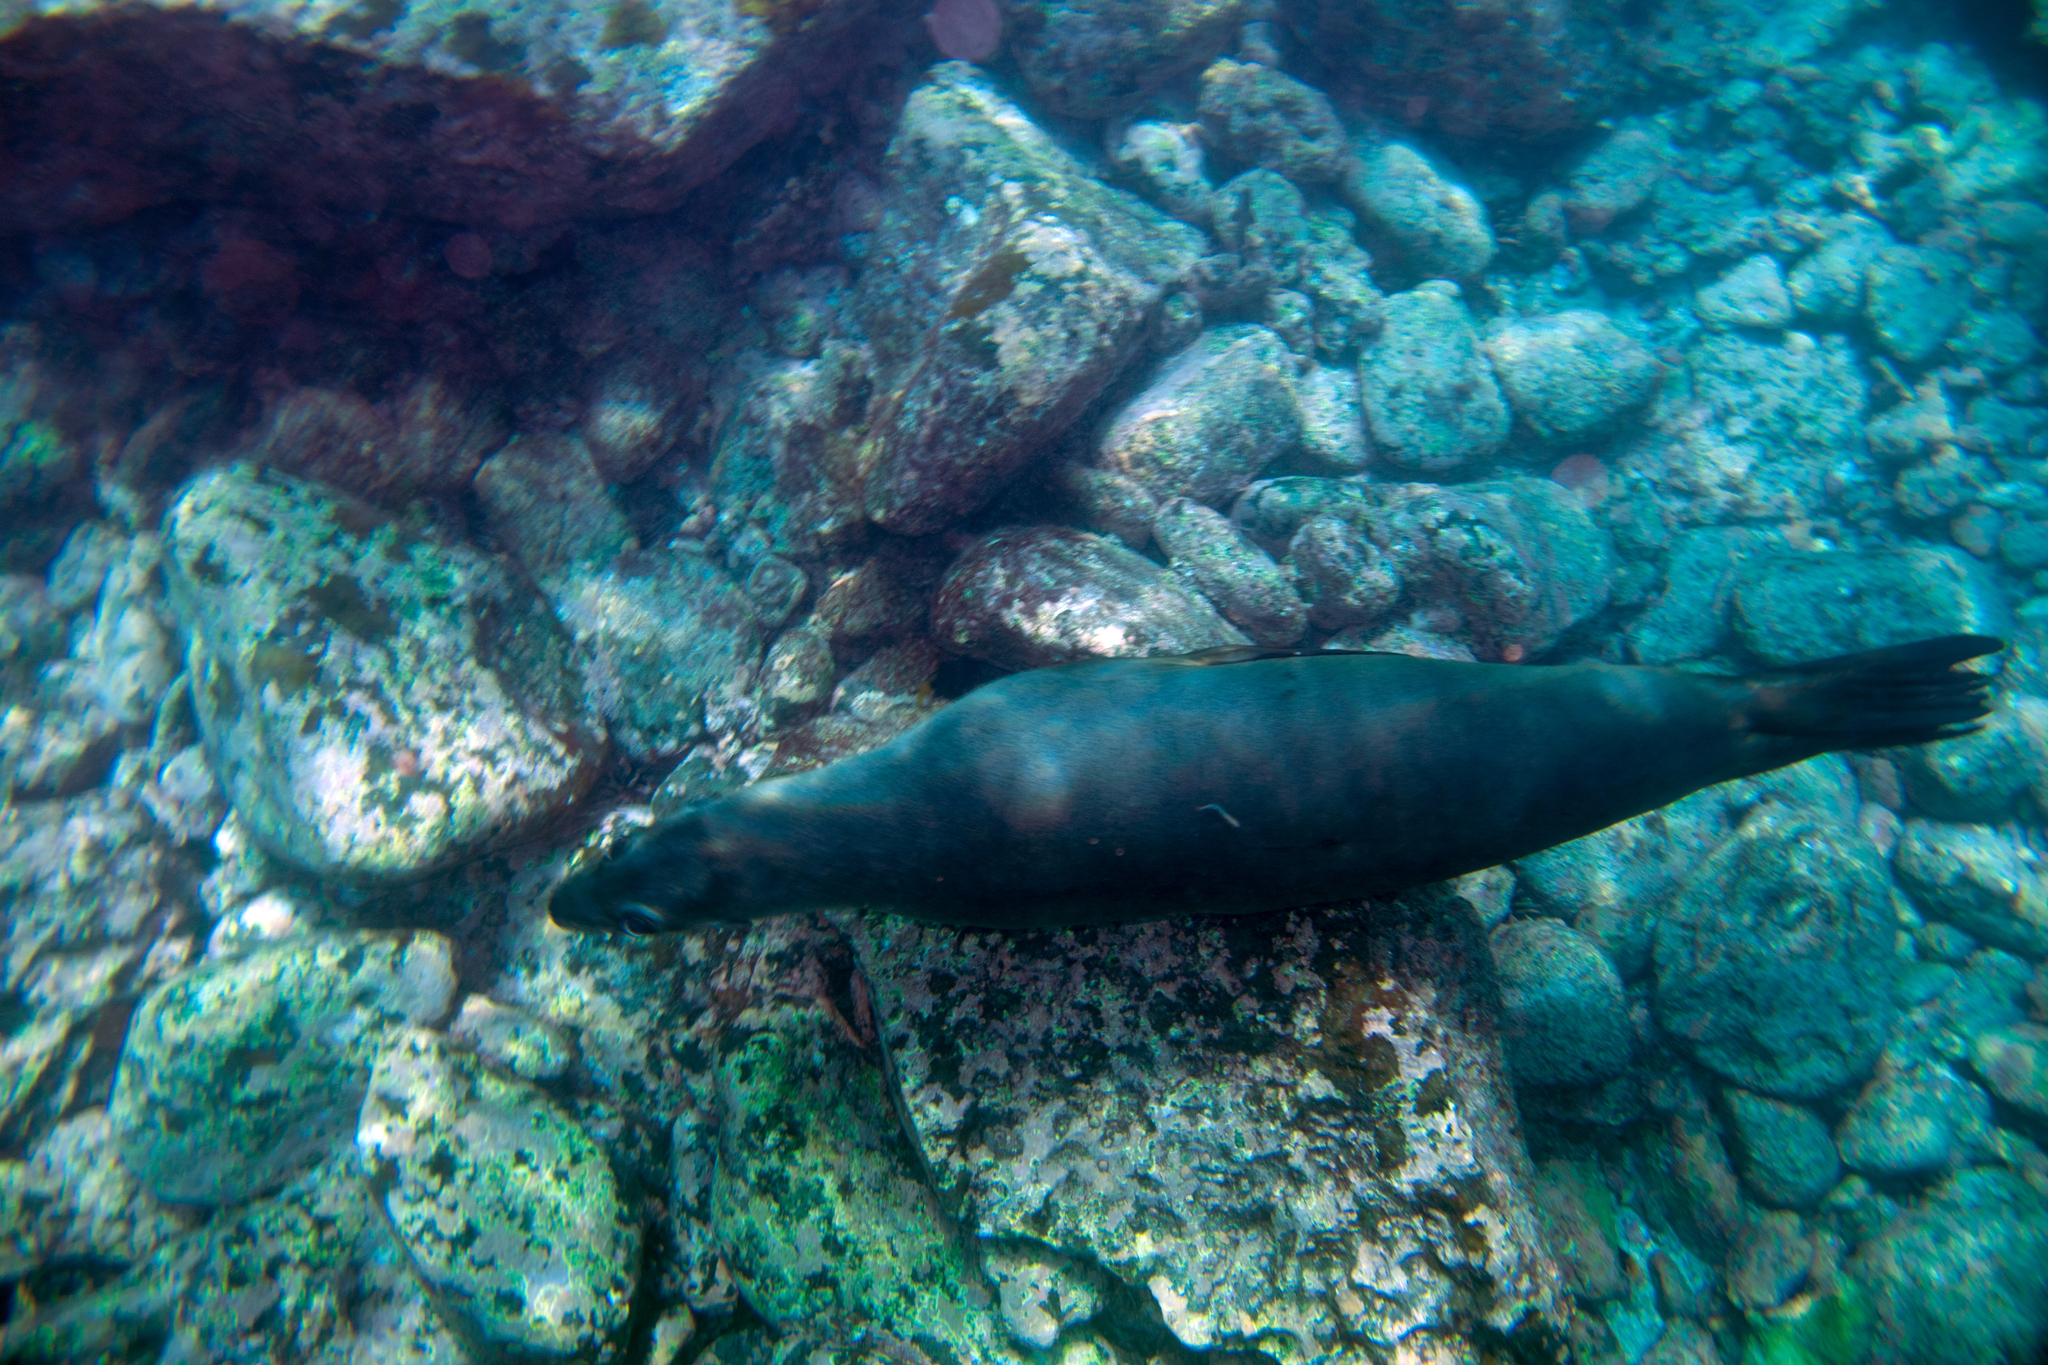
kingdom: Animalia
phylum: Chordata
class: Mammalia
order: Carnivora
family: Otariidae
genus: Zalophus
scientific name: Zalophus wollebaeki
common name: Galapagos sea lion
